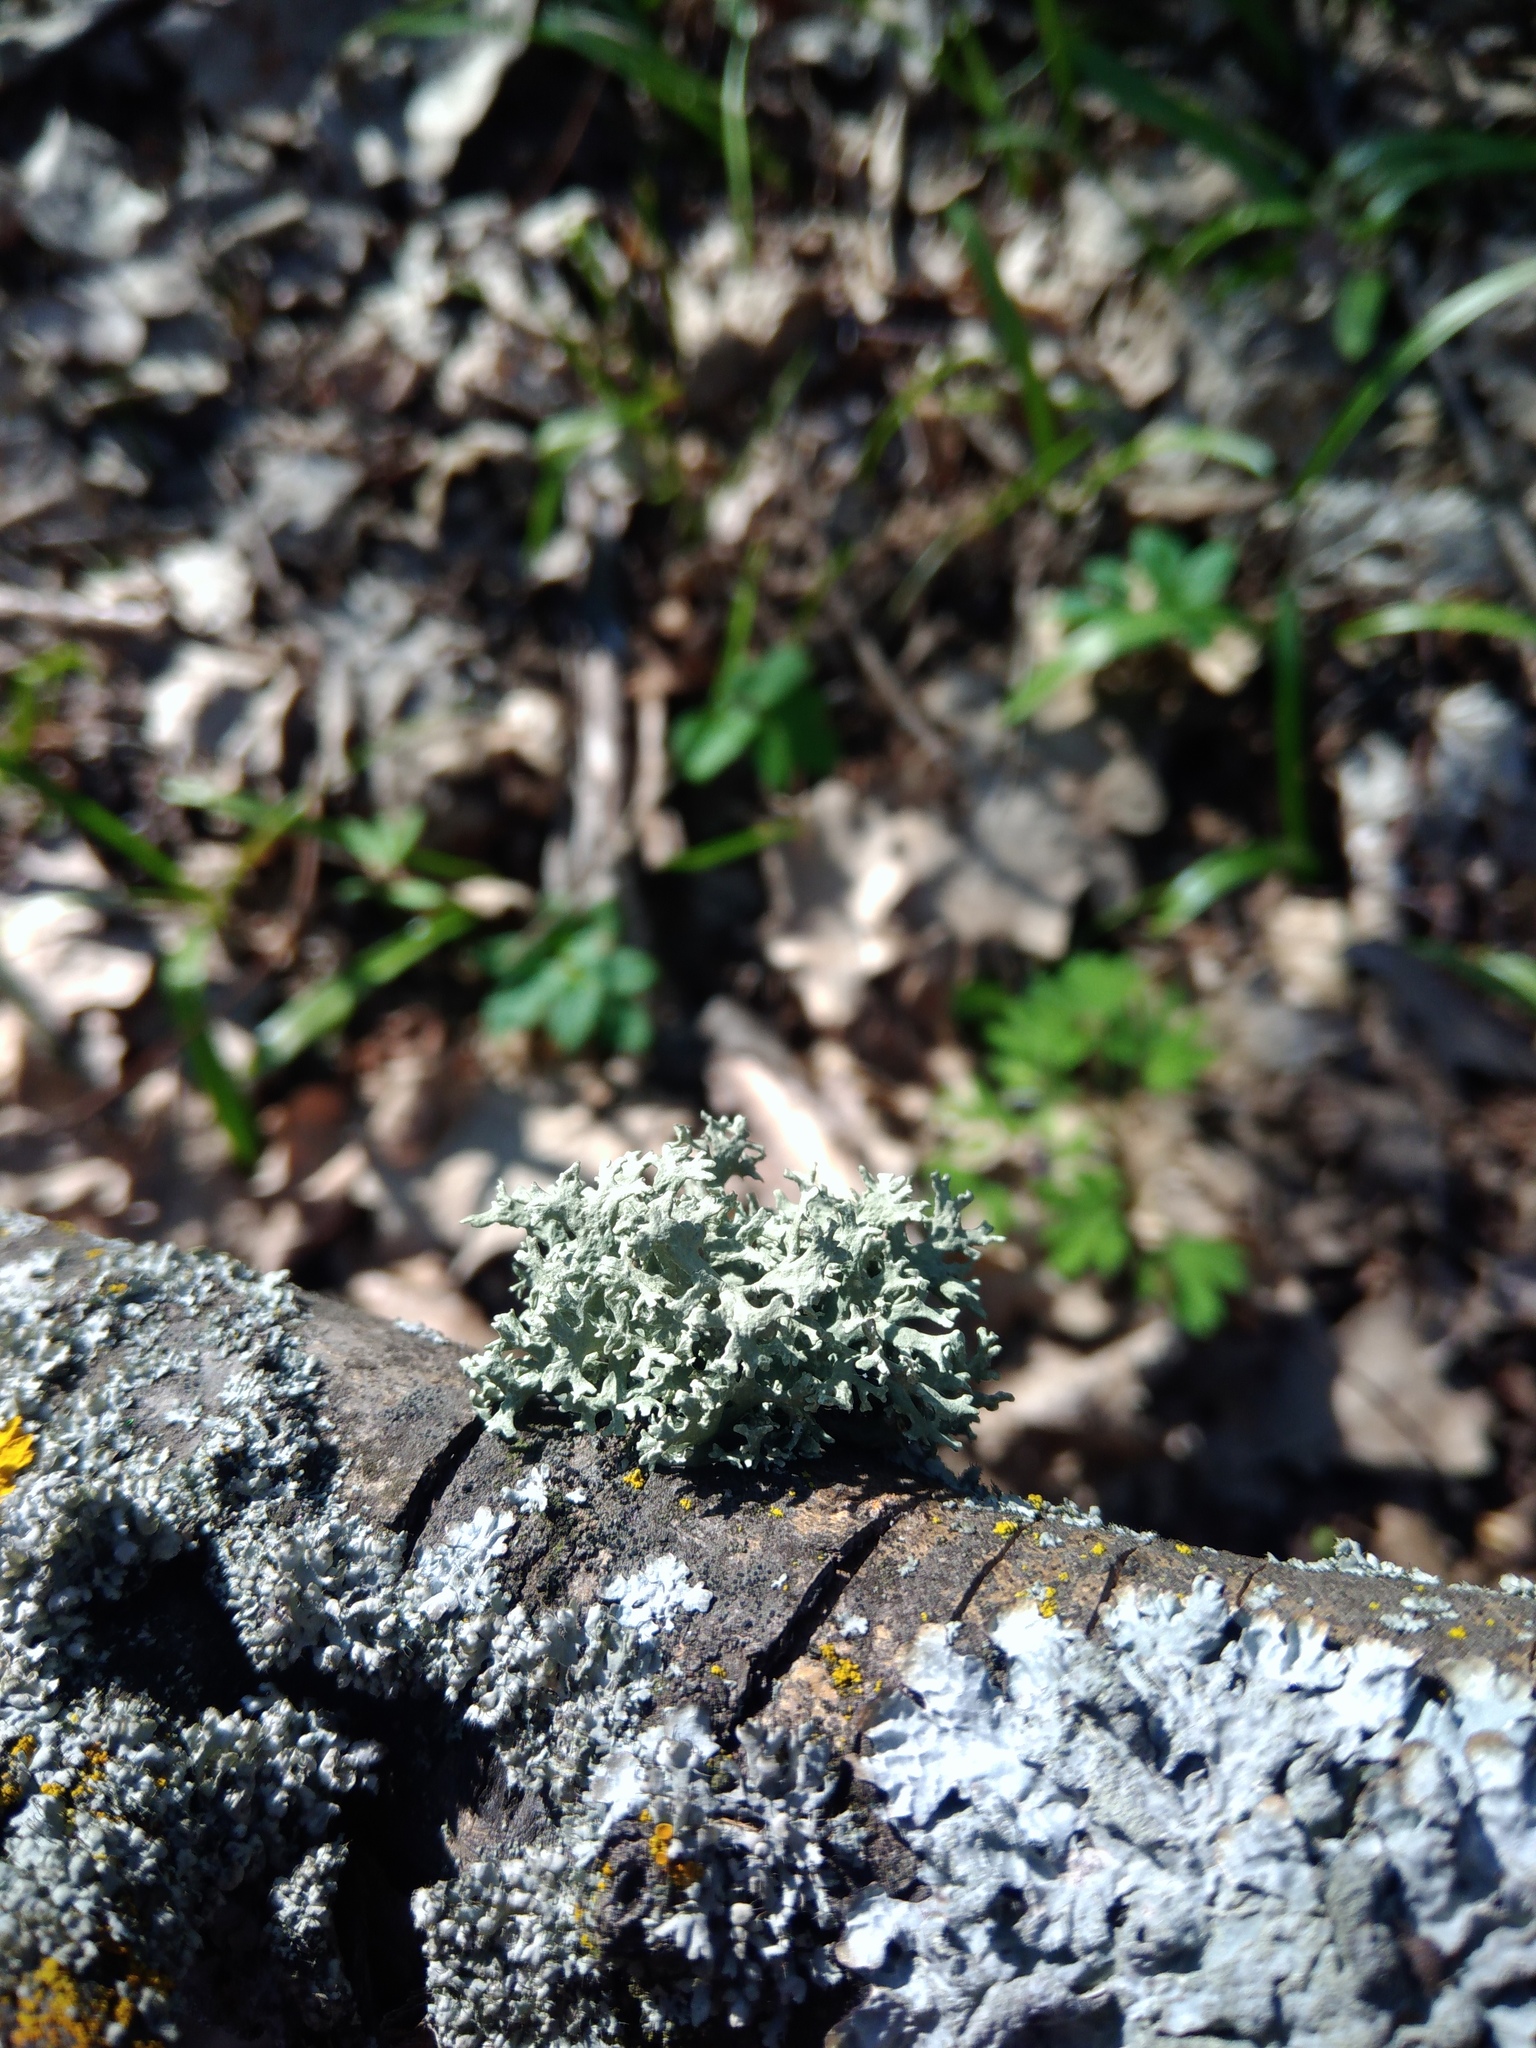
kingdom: Fungi
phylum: Ascomycota
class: Lecanoromycetes
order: Lecanorales
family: Parmeliaceae
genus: Evernia
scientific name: Evernia prunastri
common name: Oak moss
